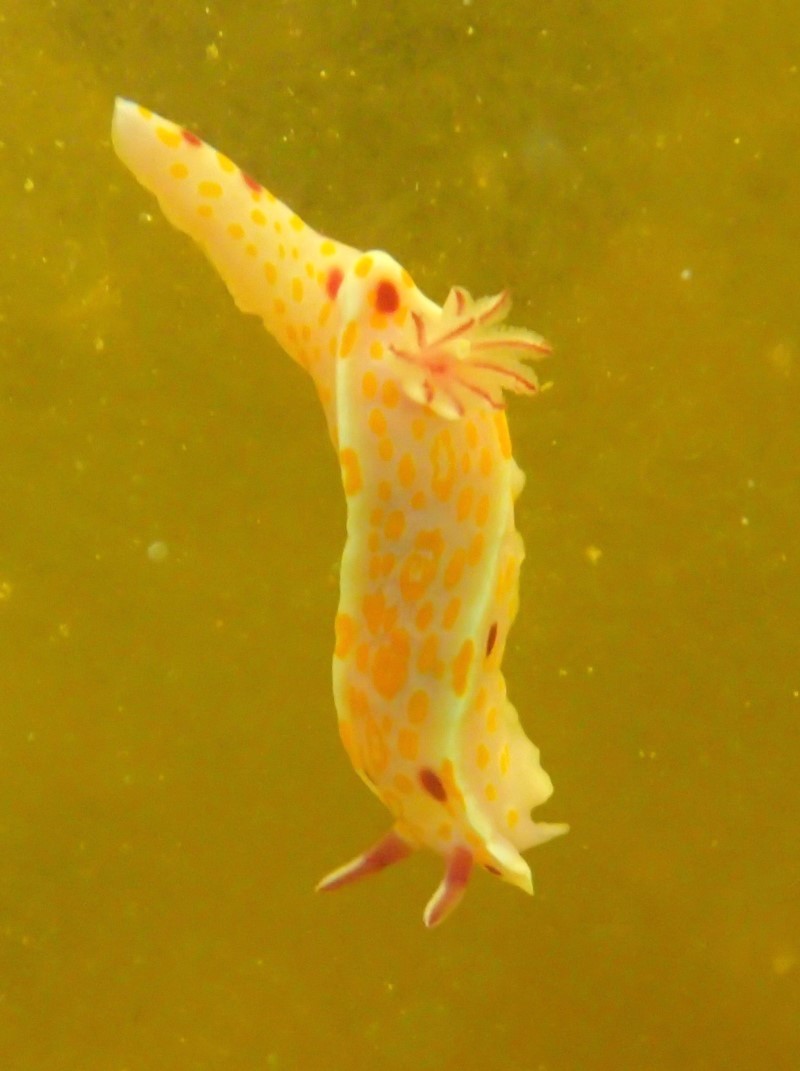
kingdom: Animalia
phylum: Mollusca
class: Gastropoda
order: Nudibranchia
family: Chromodorididae
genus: Ceratosoma
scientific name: Ceratosoma amoenum
